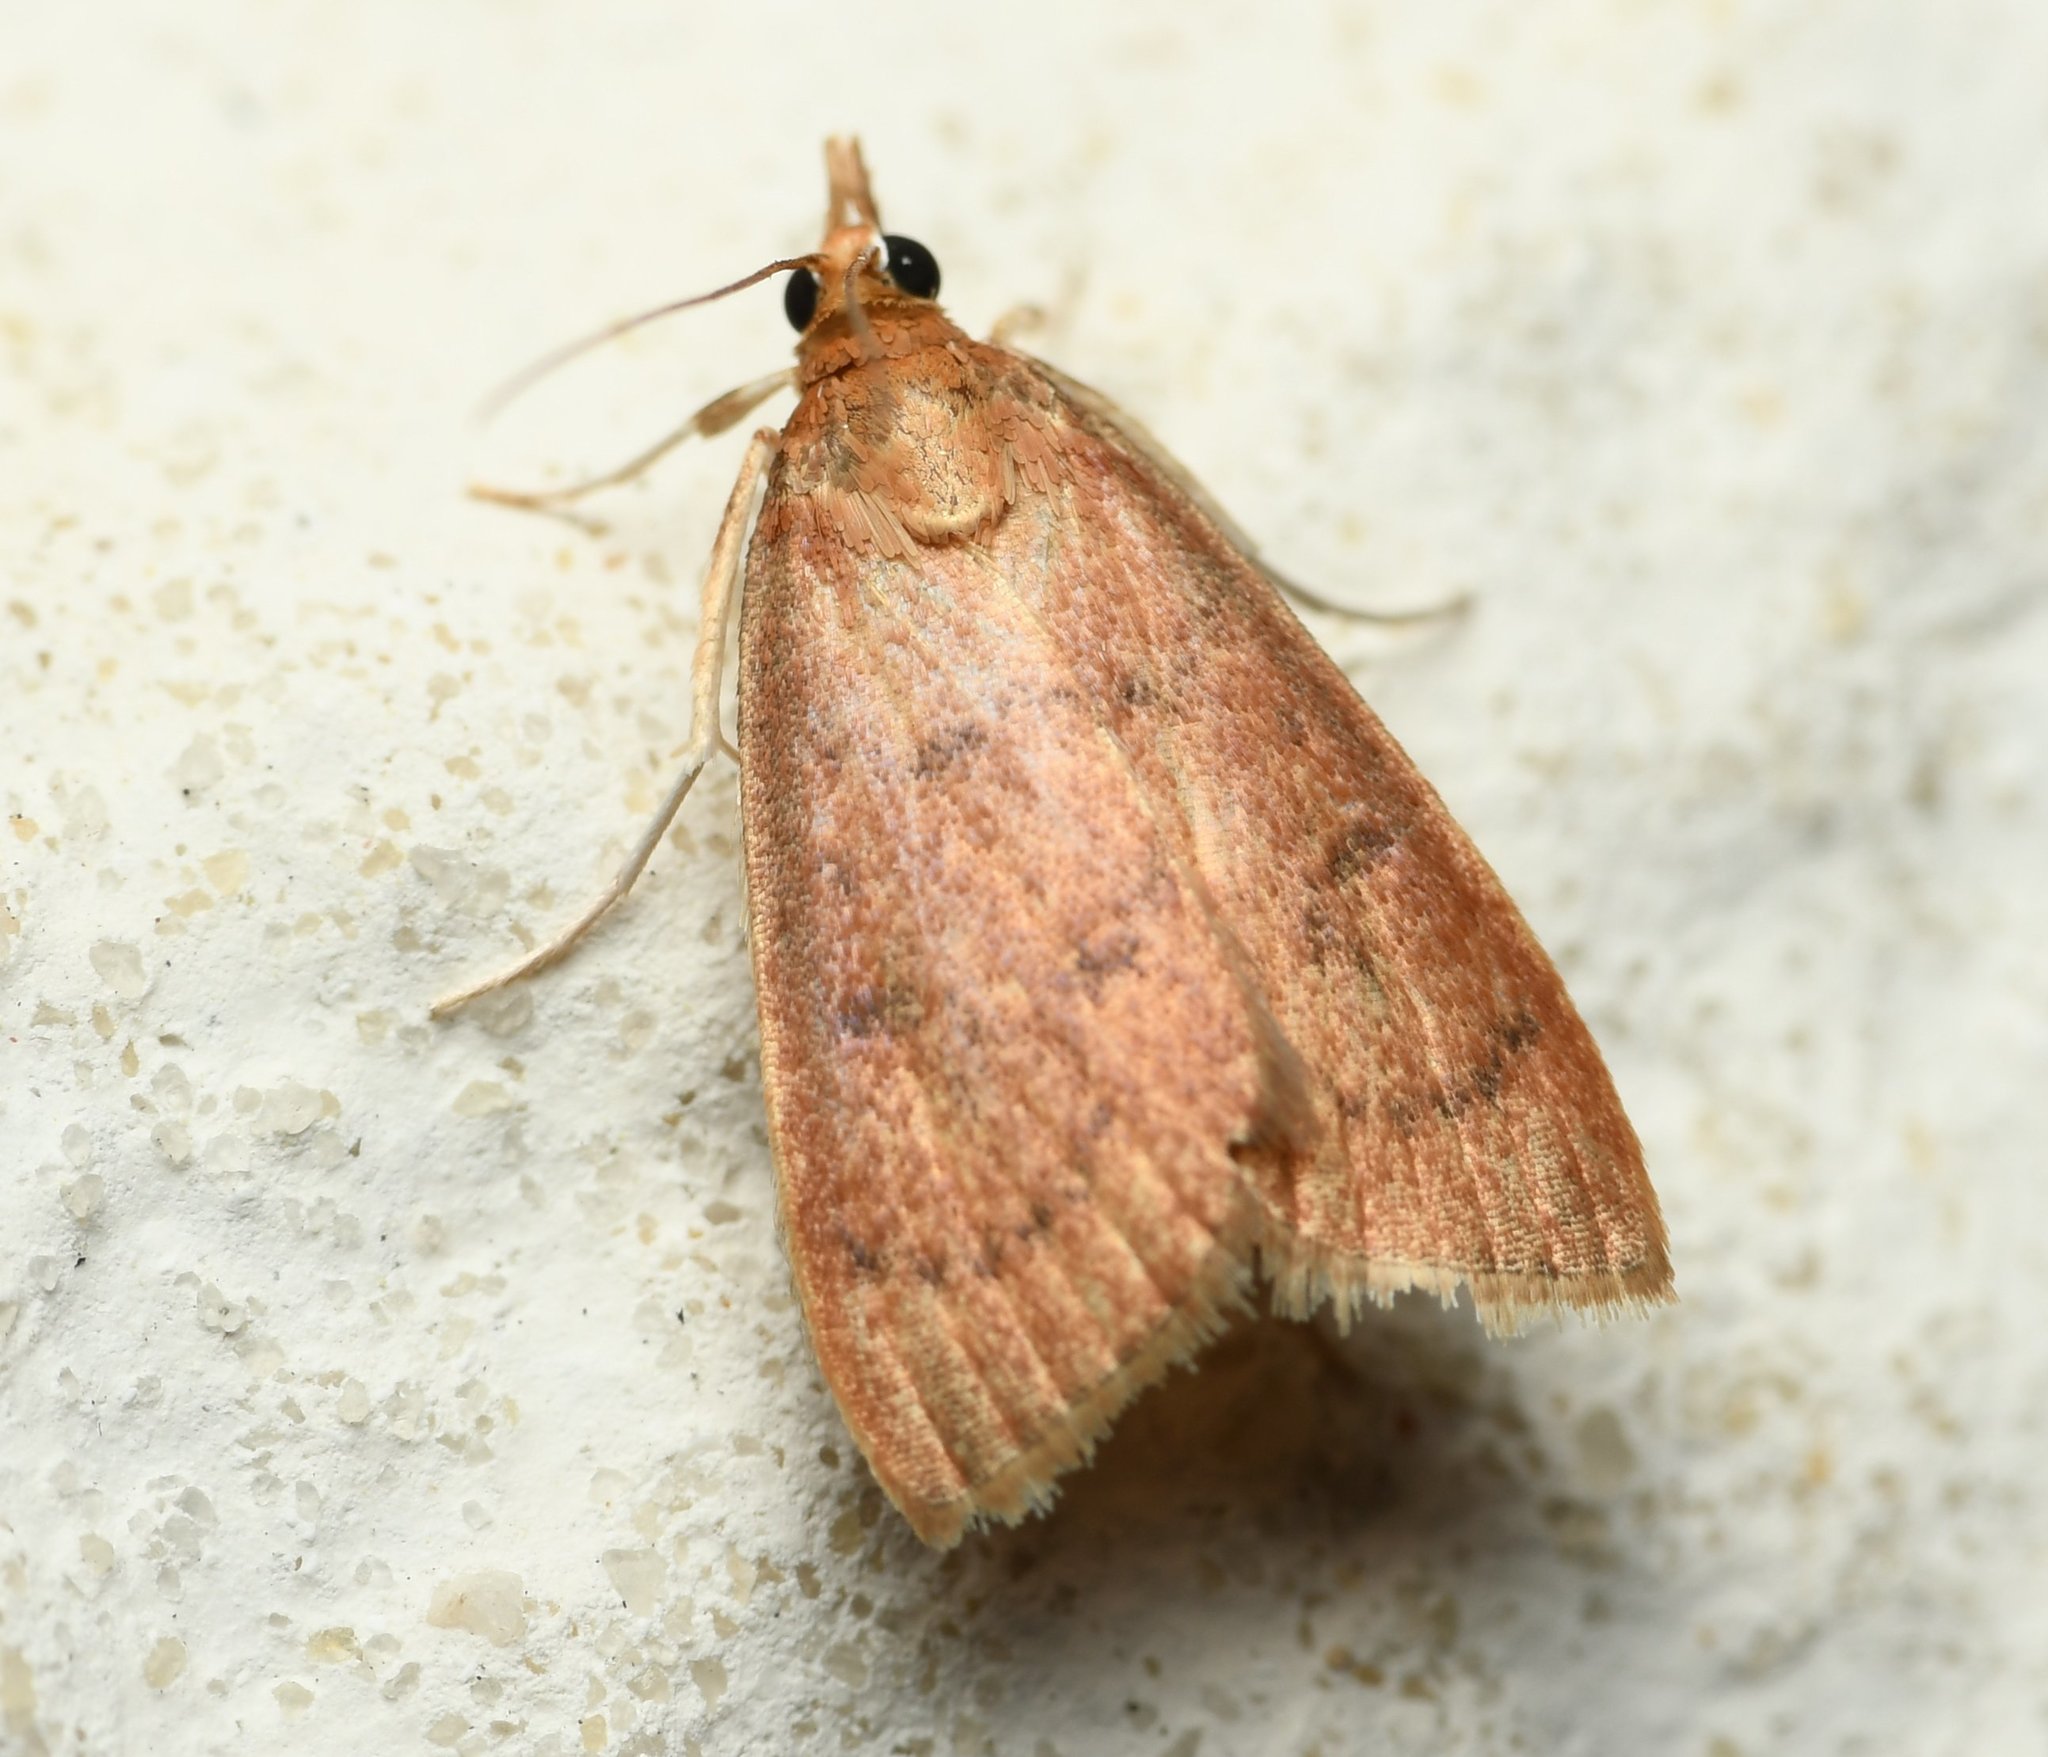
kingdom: Animalia
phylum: Arthropoda
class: Insecta
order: Lepidoptera
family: Crambidae
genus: Oenobotys
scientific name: Oenobotys vinotinctalis
